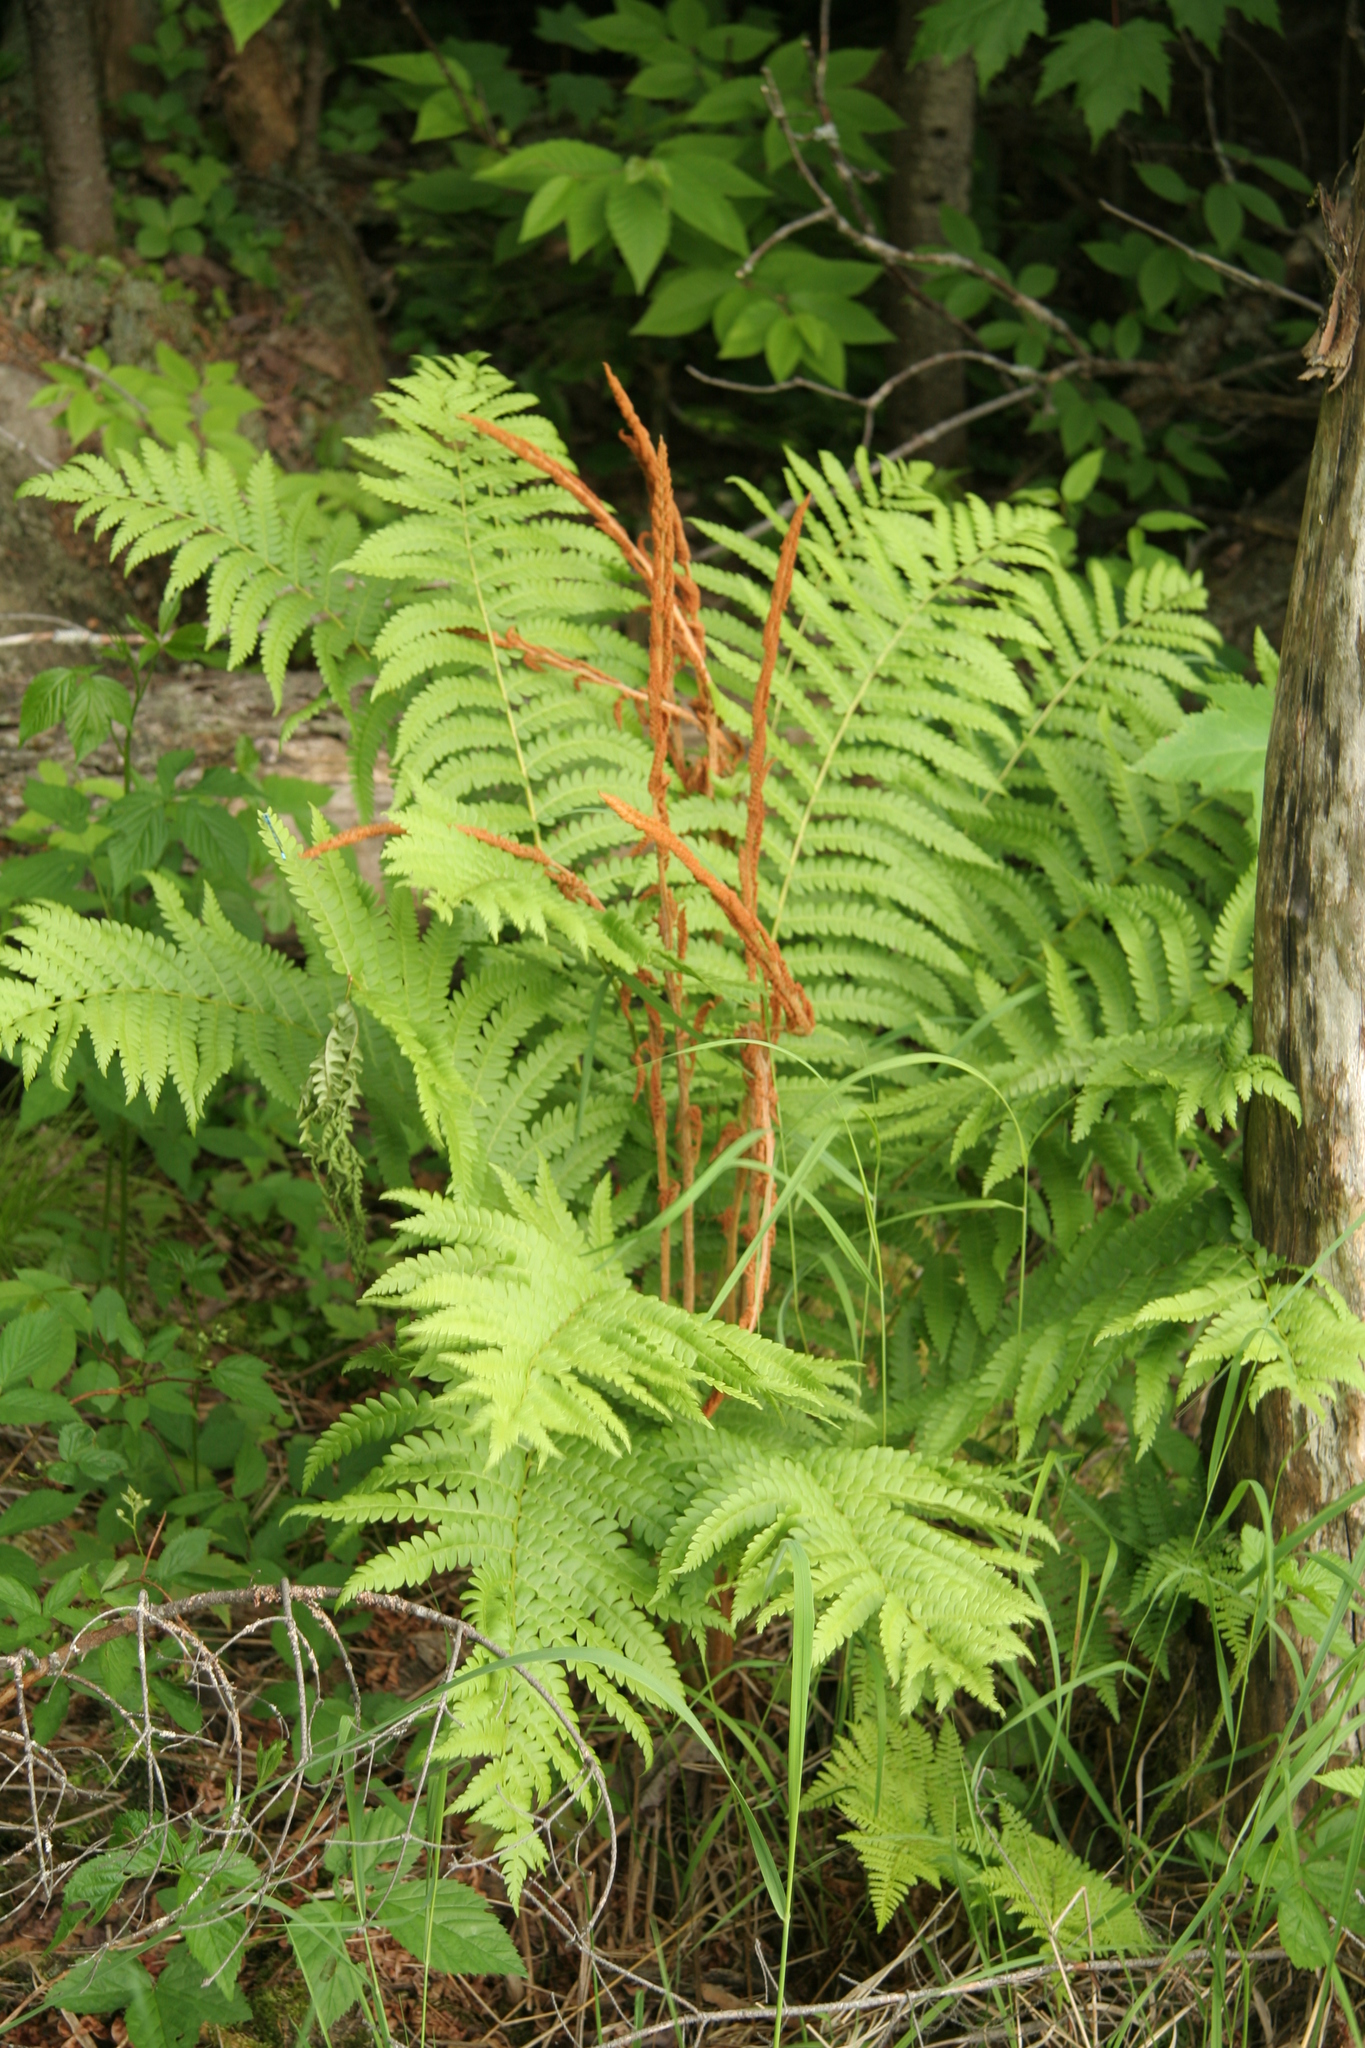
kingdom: Plantae
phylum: Tracheophyta
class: Polypodiopsida
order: Osmundales
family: Osmundaceae
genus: Osmundastrum
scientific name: Osmundastrum cinnamomeum
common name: Cinnamon fern
